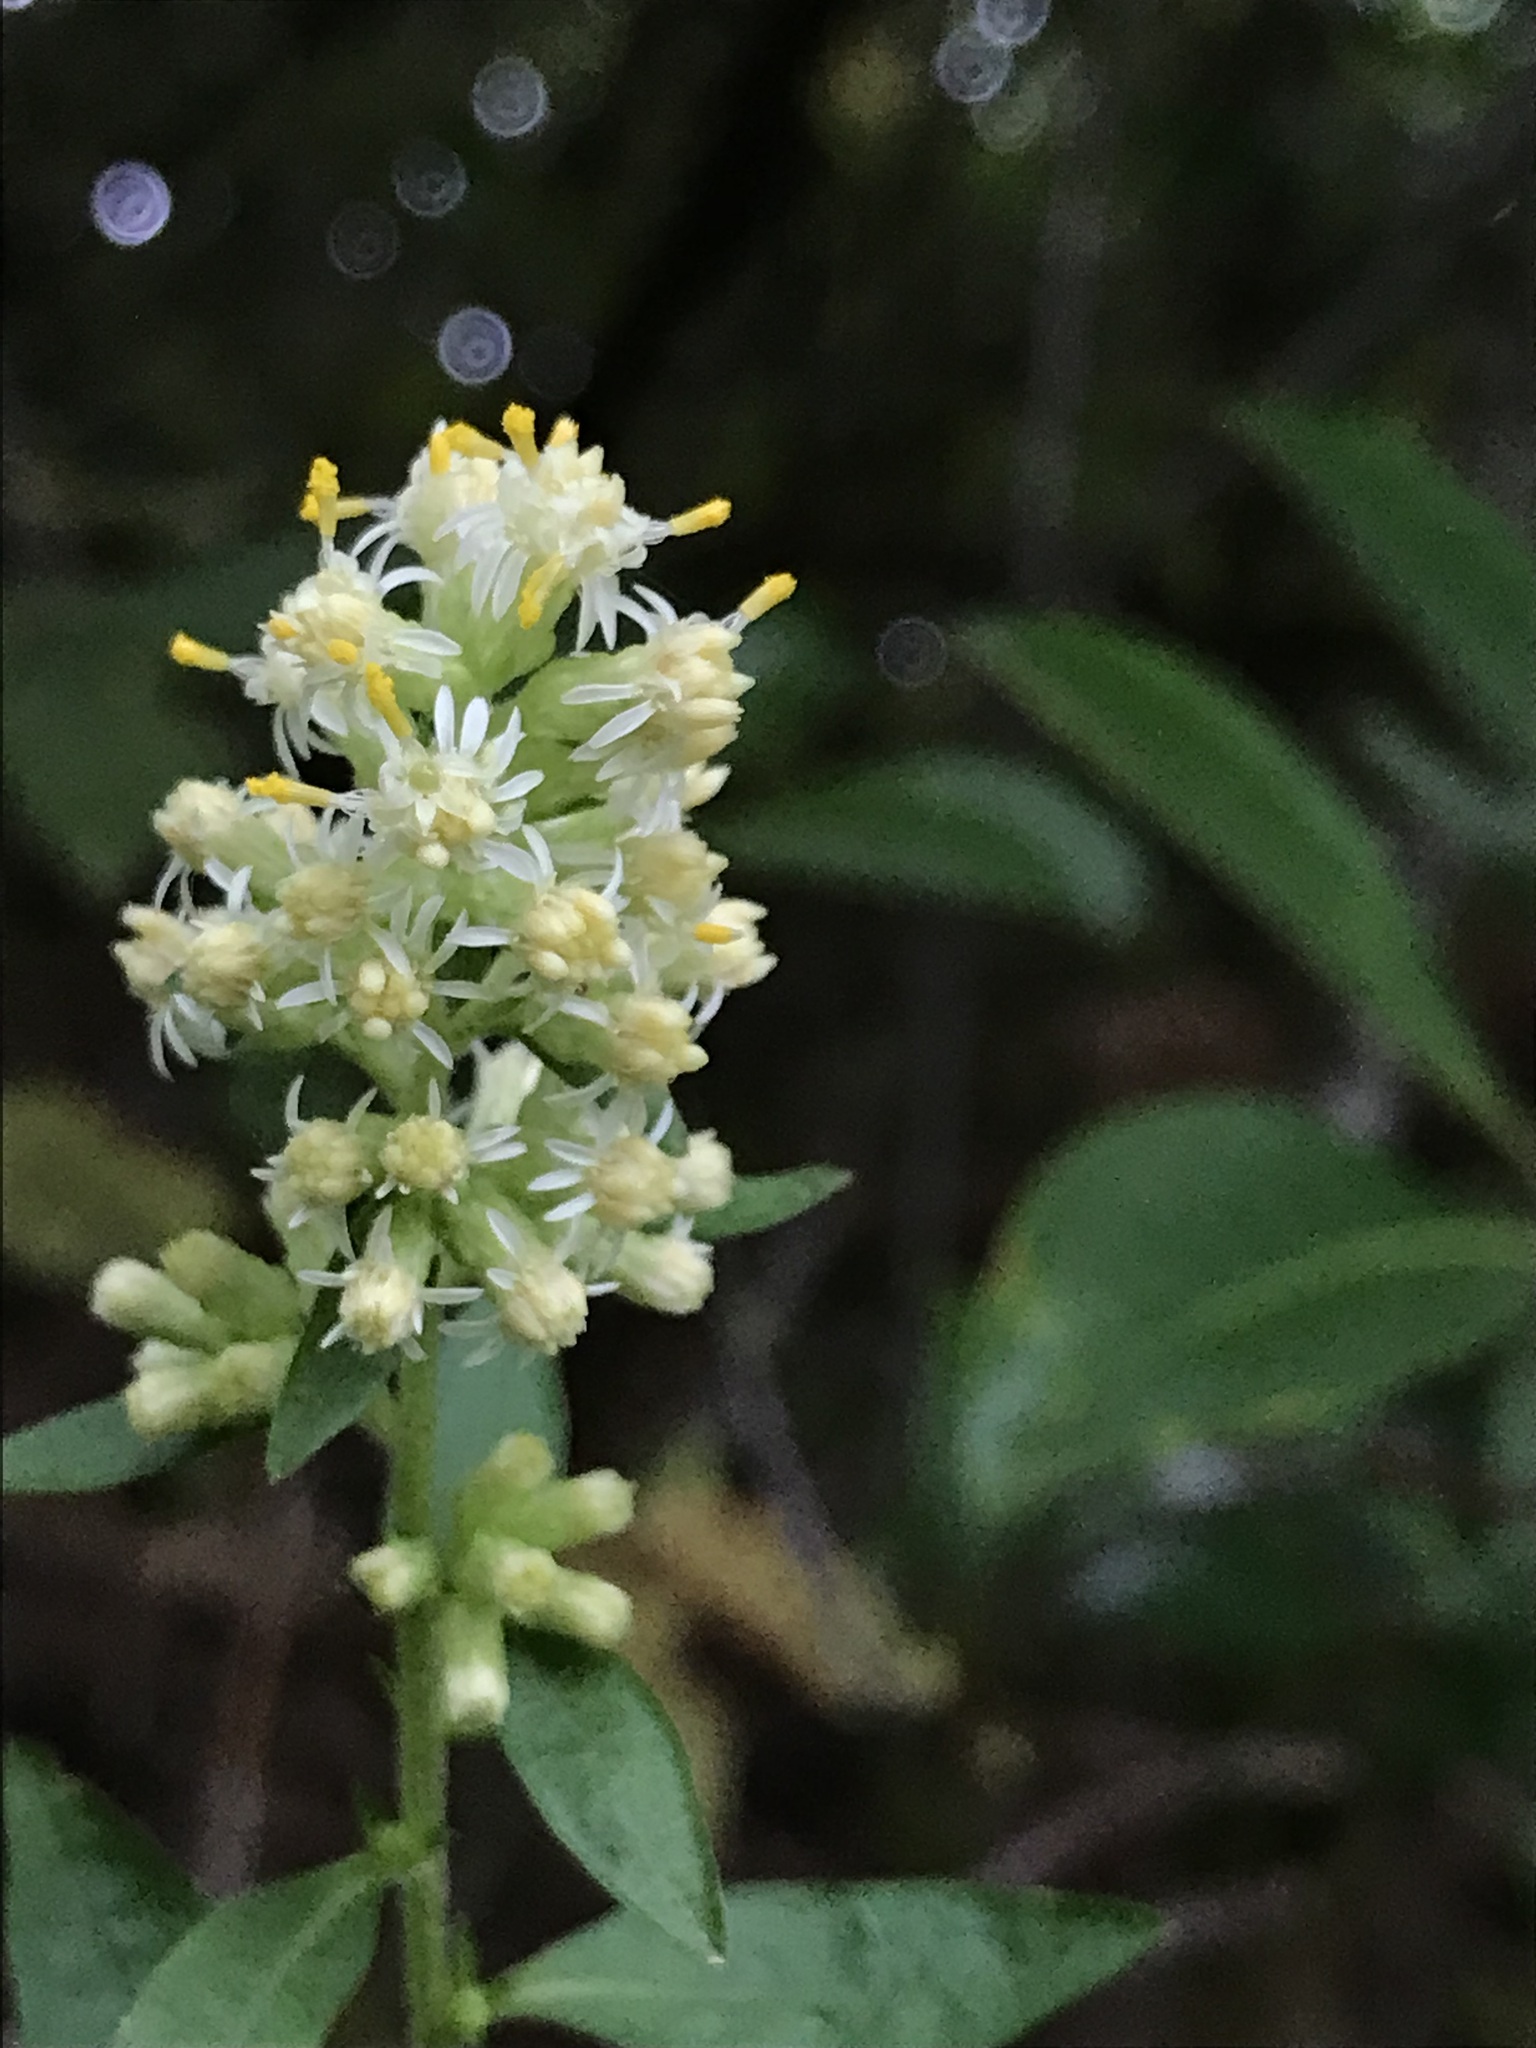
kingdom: Plantae
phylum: Tracheophyta
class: Magnoliopsida
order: Asterales
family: Asteraceae
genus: Solidago
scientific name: Solidago bicolor
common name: Silverrod
